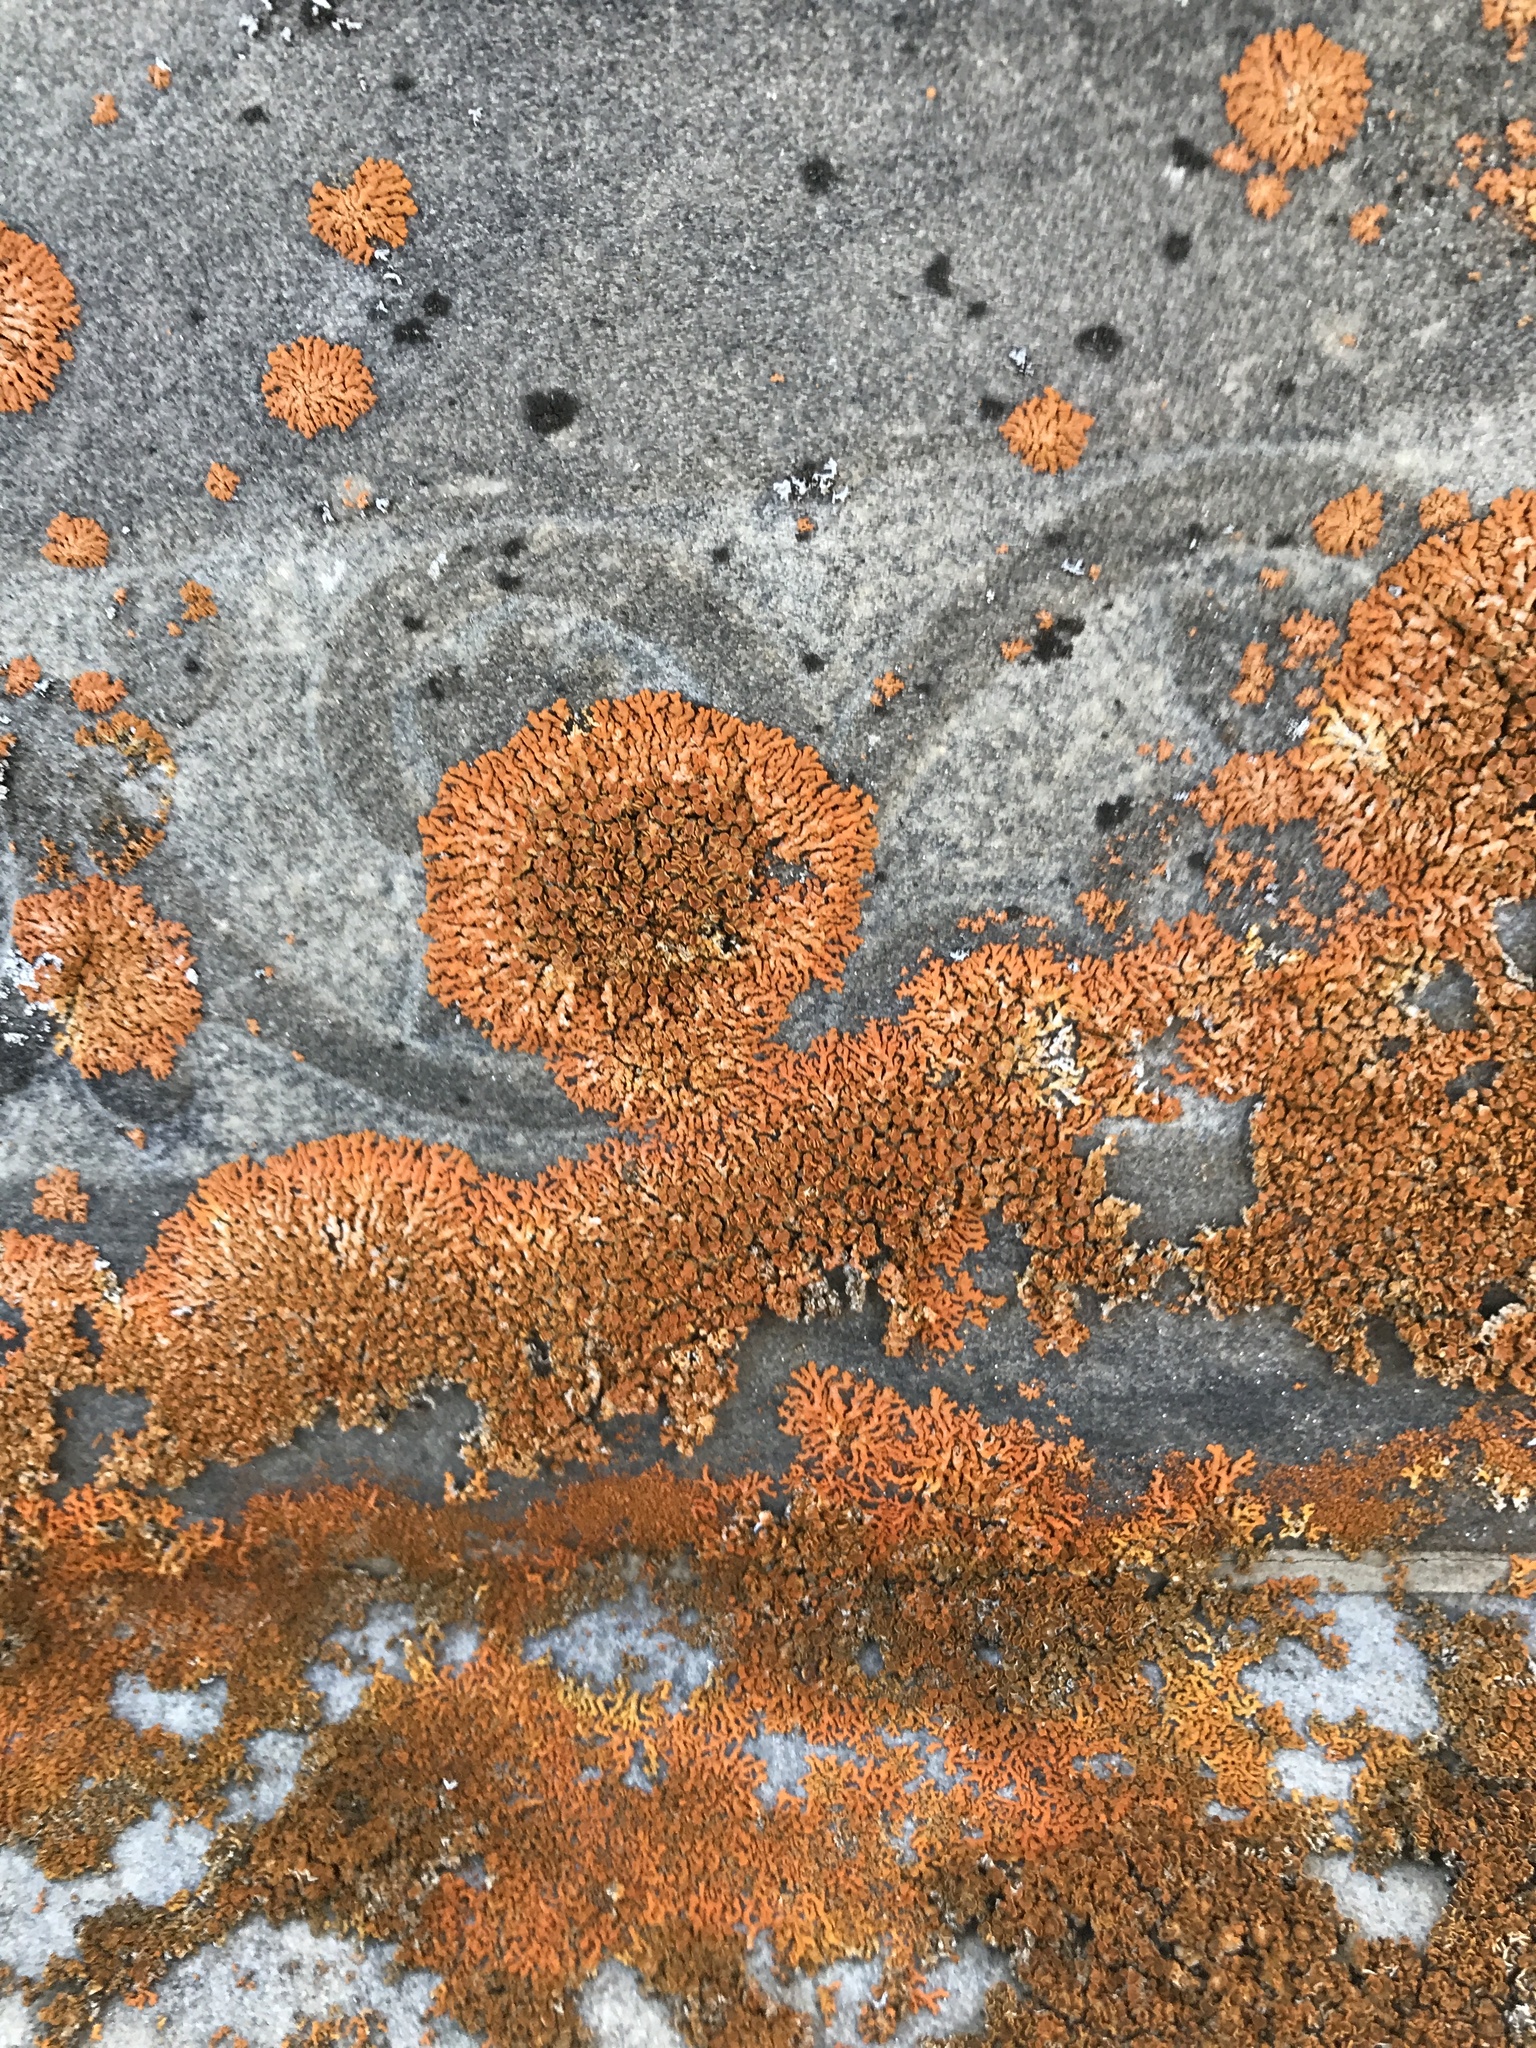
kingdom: Fungi
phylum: Ascomycota
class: Lecanoromycetes
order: Teloschistales
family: Teloschistaceae
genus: Xanthoria
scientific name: Xanthoria elegans
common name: Elegant sunburst lichen
